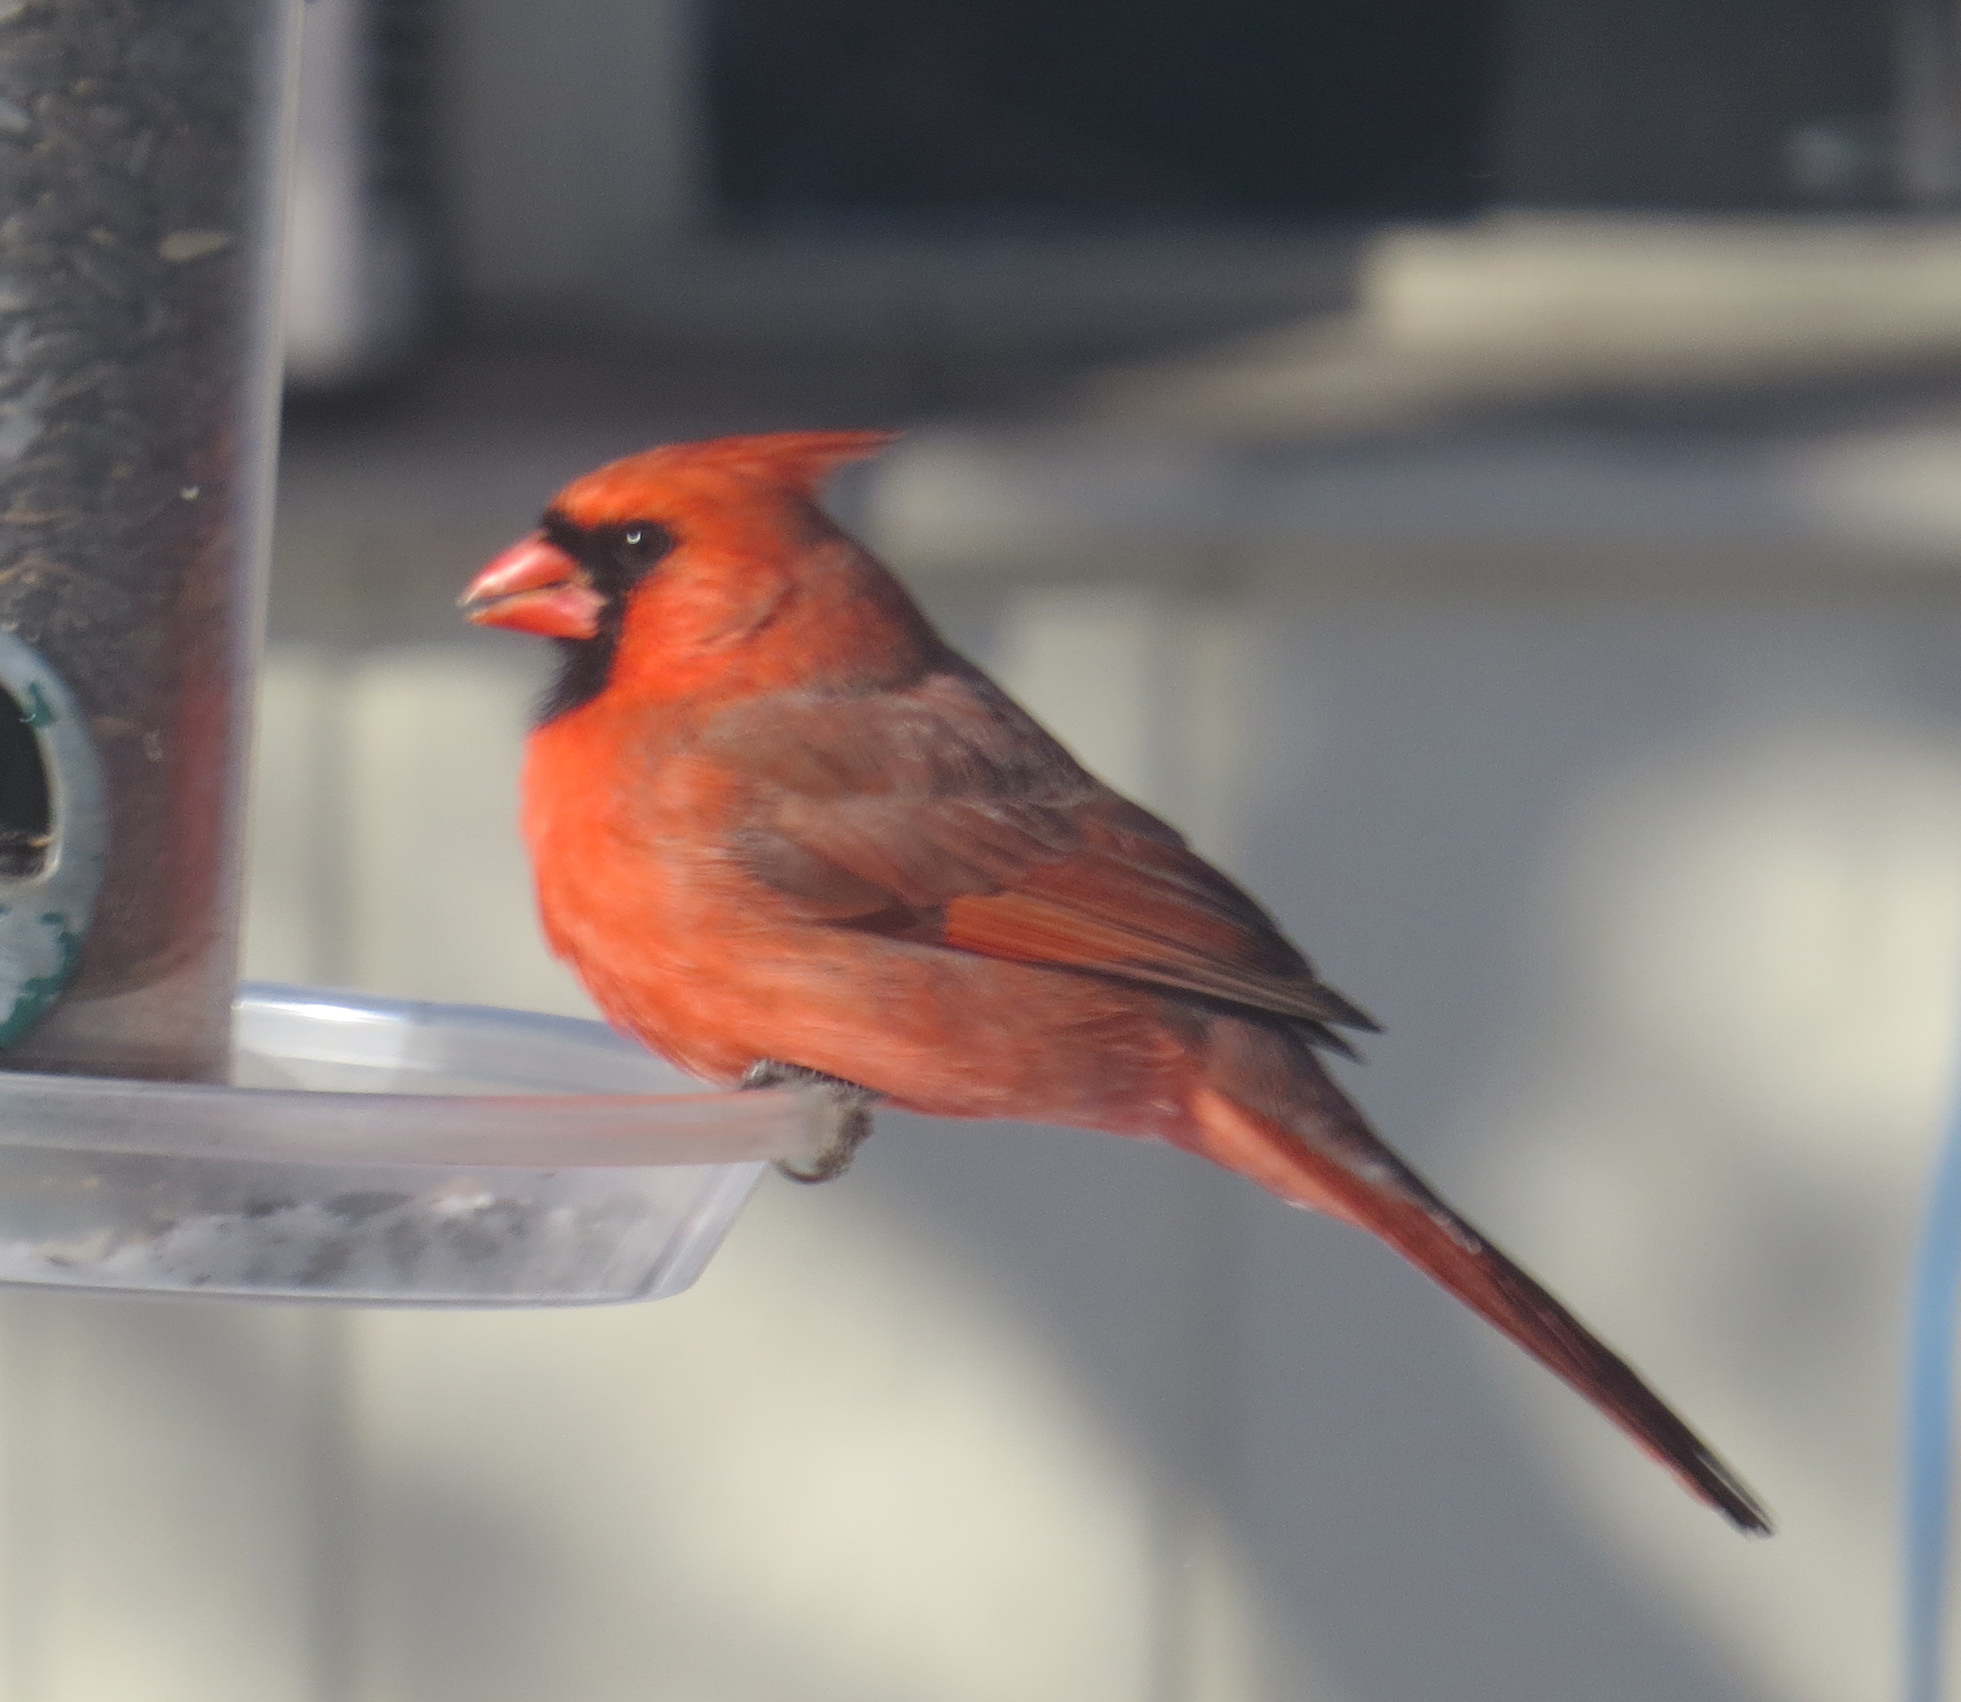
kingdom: Animalia
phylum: Chordata
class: Aves
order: Passeriformes
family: Cardinalidae
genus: Cardinalis
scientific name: Cardinalis cardinalis
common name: Northern cardinal
